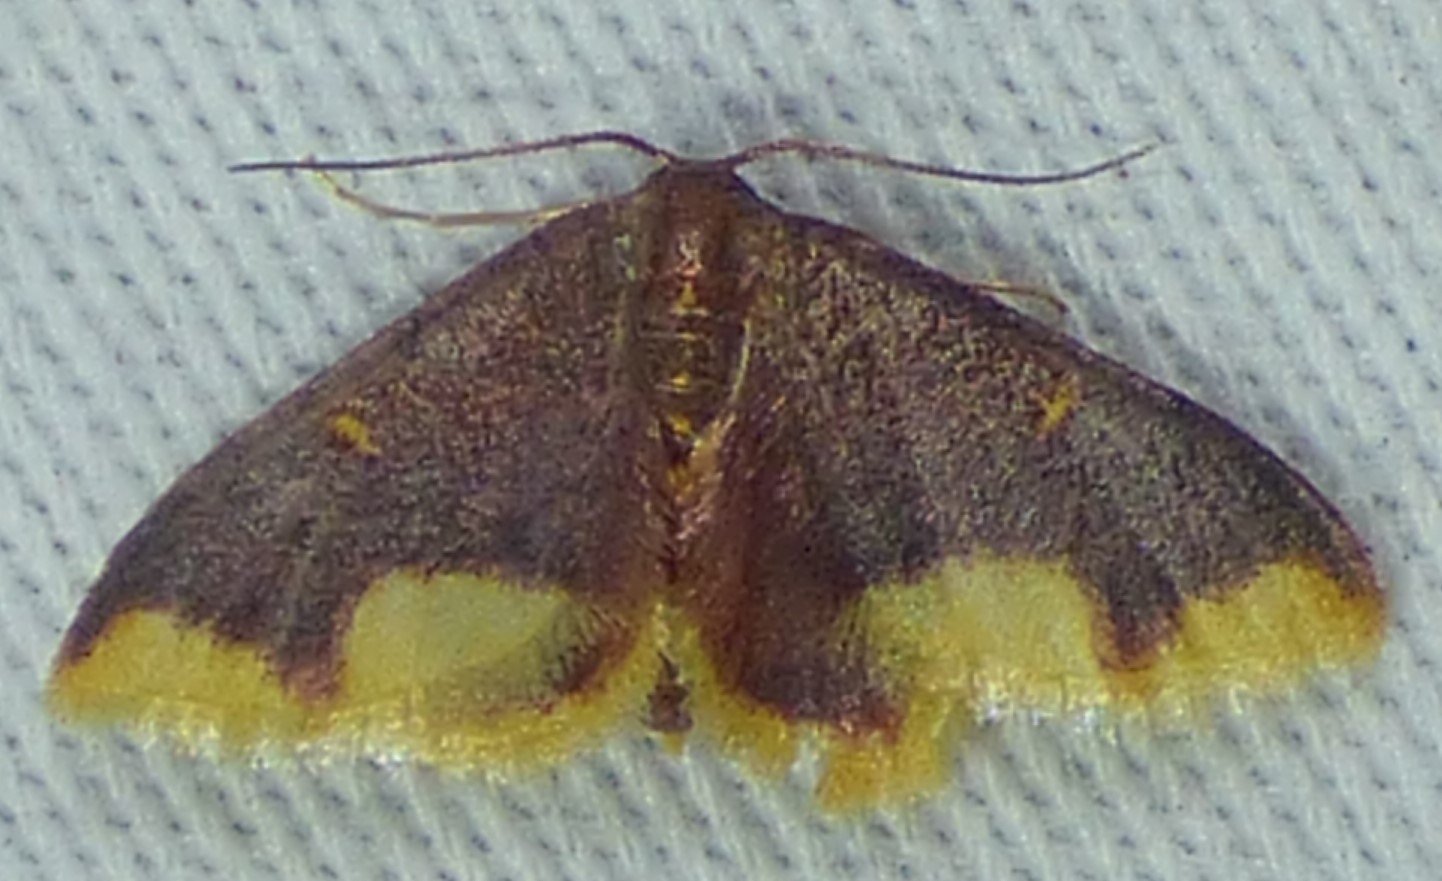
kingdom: Animalia
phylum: Arthropoda
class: Insecta
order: Lepidoptera
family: Geometridae
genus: Lophosis
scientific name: Lophosis labeculata
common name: Stained lophosis moth
